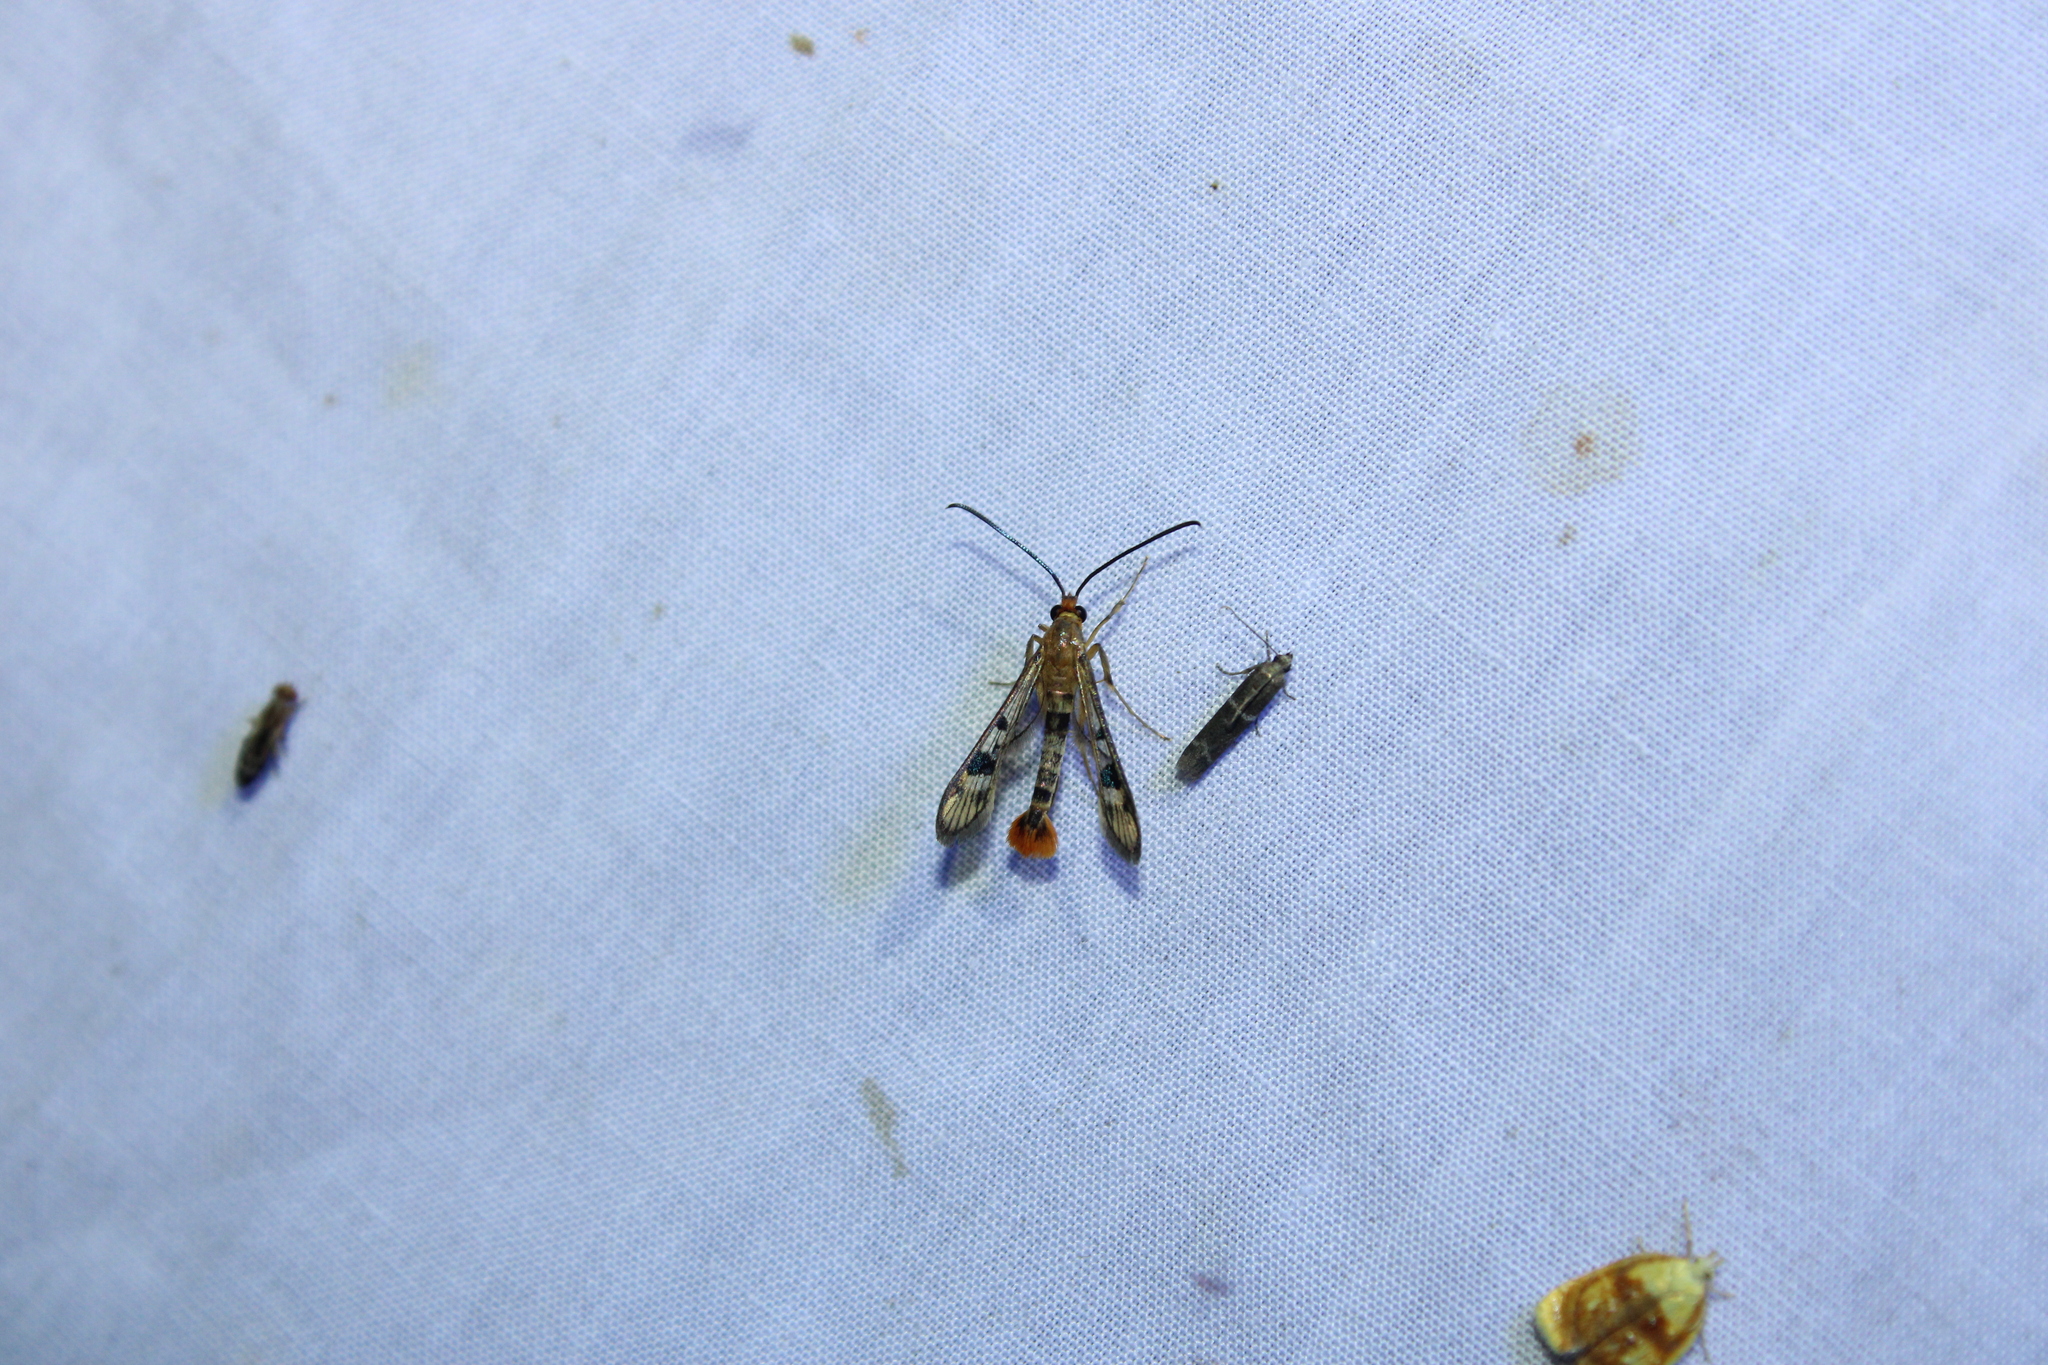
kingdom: Animalia
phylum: Arthropoda
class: Insecta
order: Lepidoptera
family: Sesiidae
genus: Synanthedon
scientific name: Synanthedon acerni
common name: Maple callus borer moth
